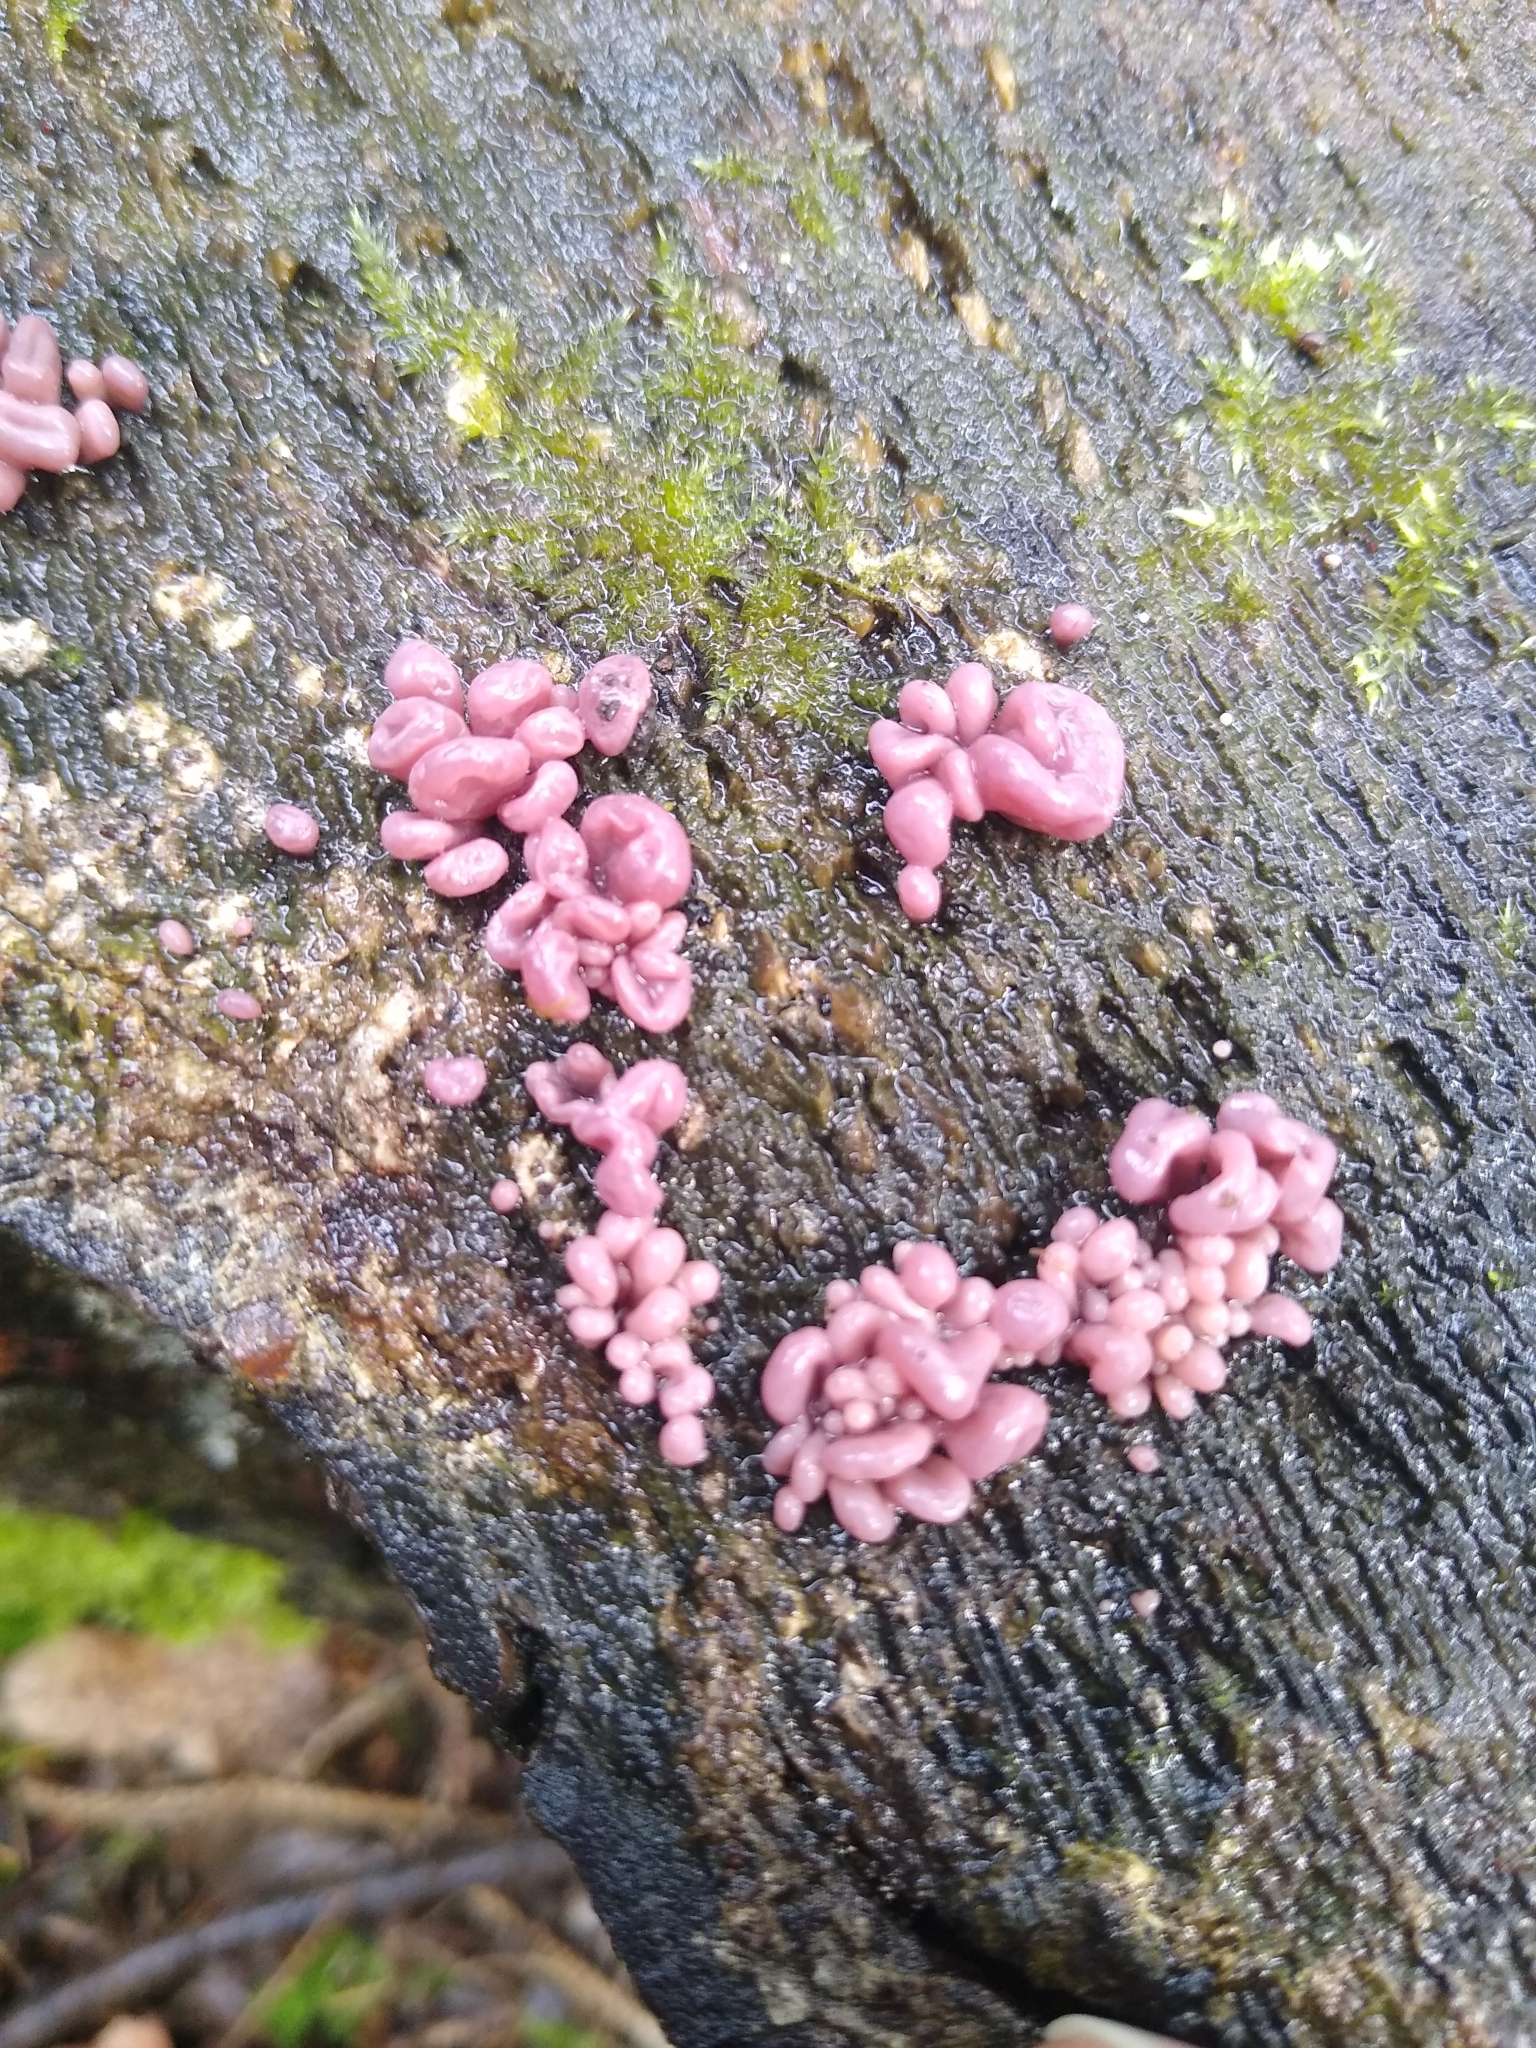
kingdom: Fungi
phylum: Ascomycota
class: Leotiomycetes
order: Helotiales
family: Gelatinodiscaceae
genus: Ascocoryne
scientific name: Ascocoryne sarcoides
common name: Purple jellydisc
